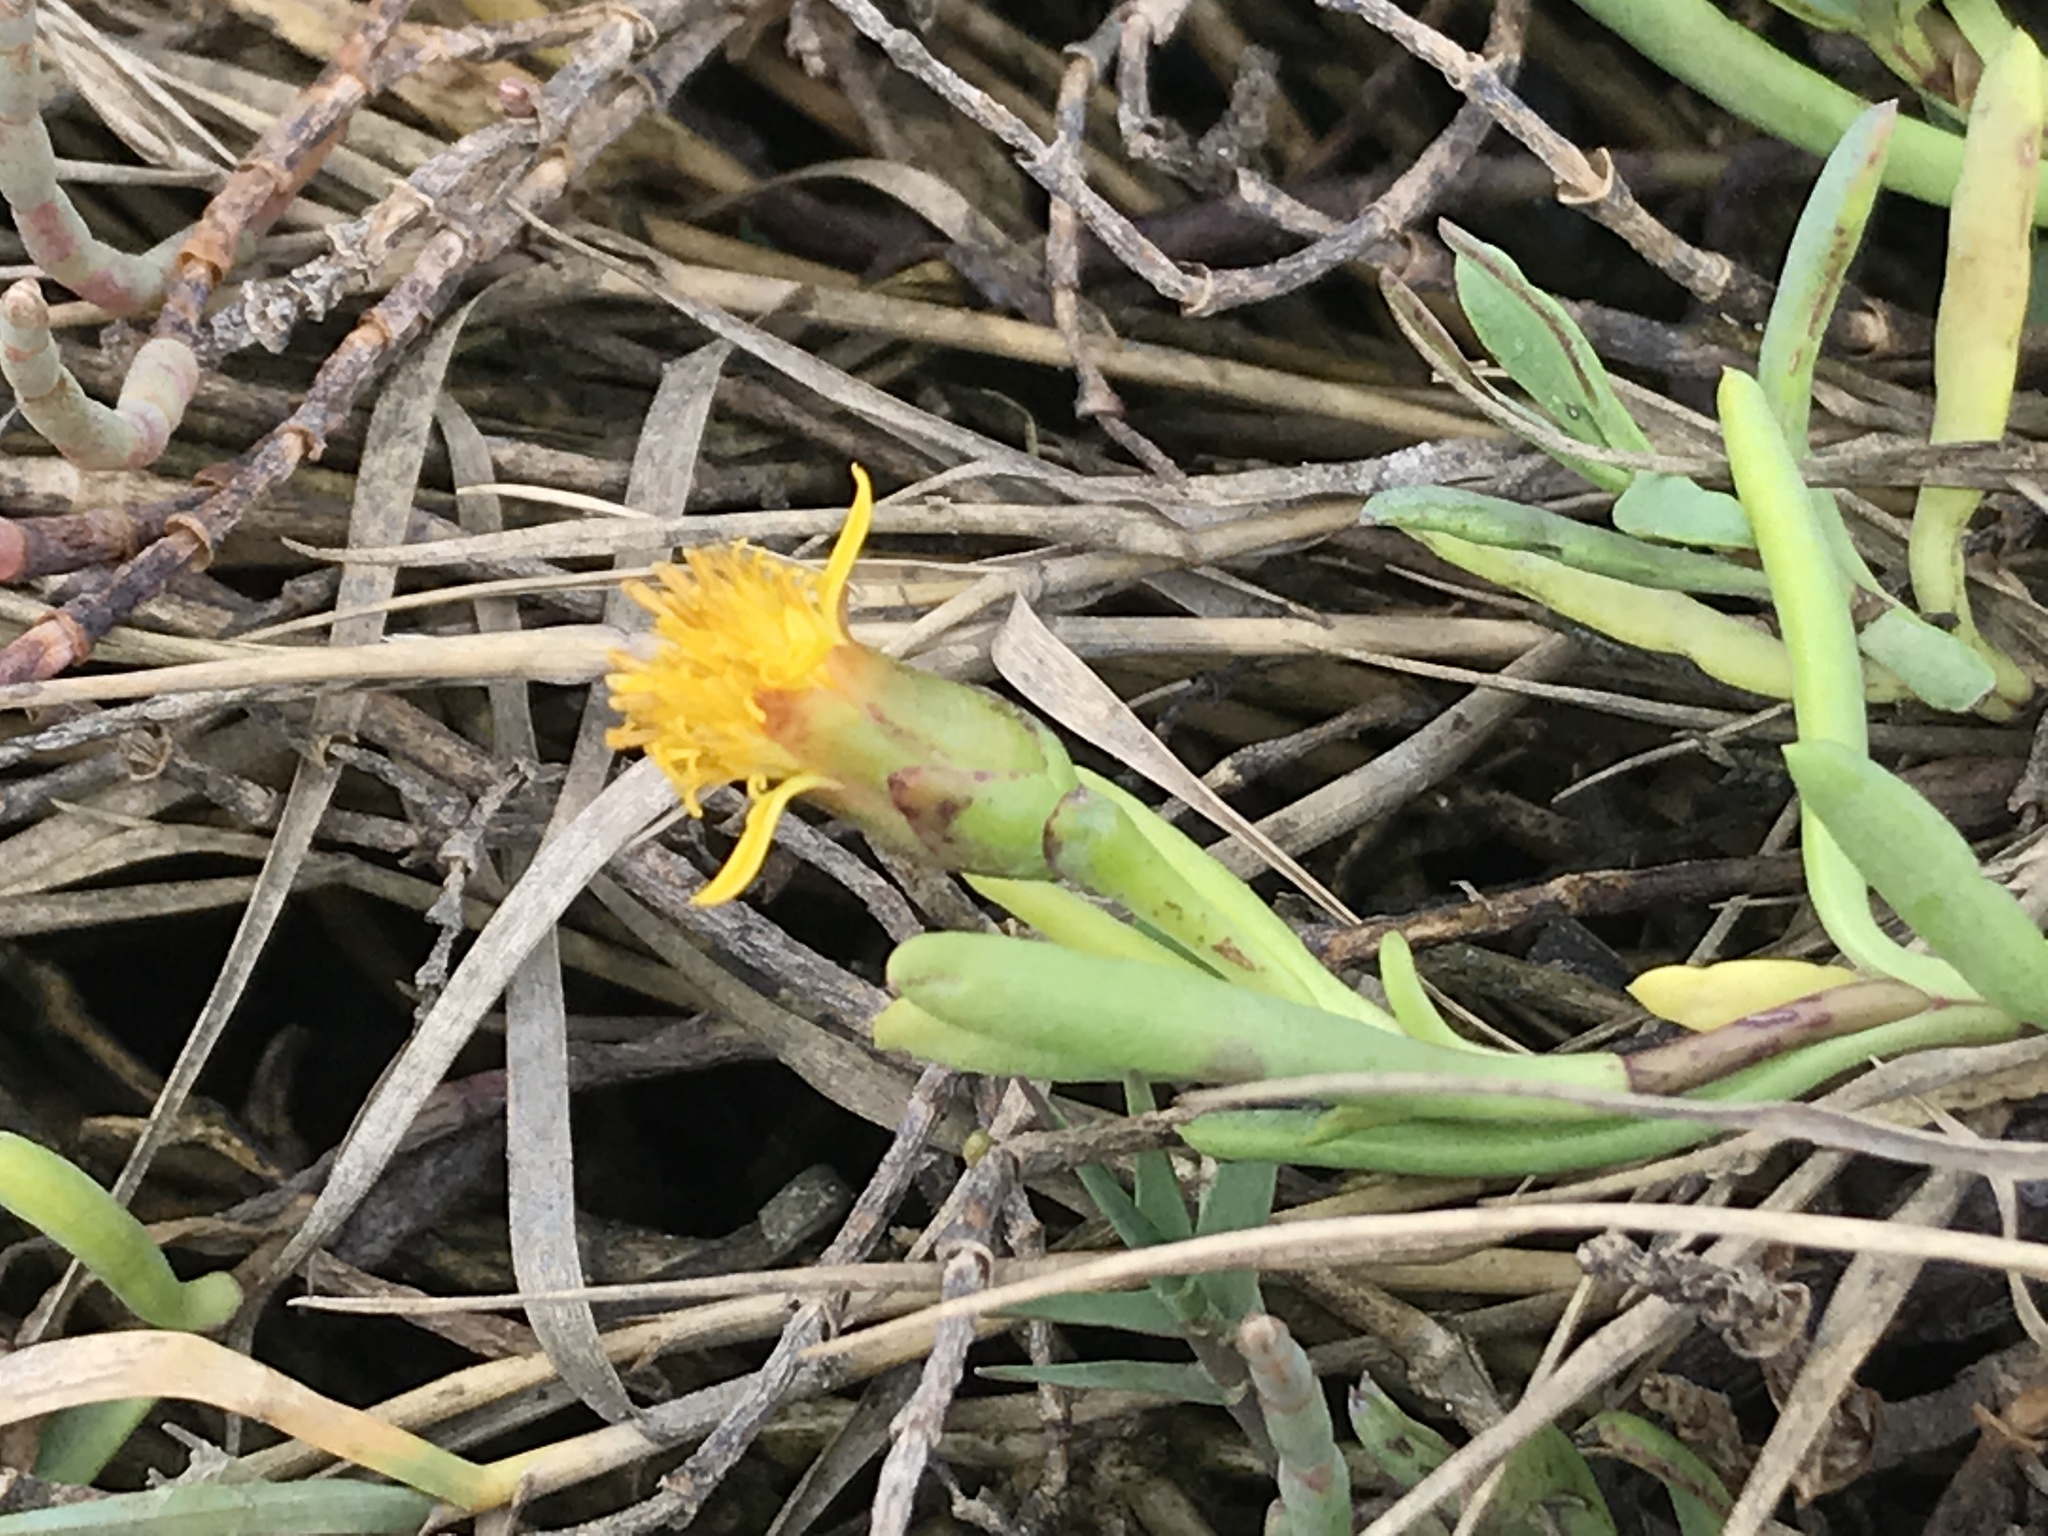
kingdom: Plantae
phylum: Tracheophyta
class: Magnoliopsida
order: Asterales
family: Asteraceae
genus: Jaumea
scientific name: Jaumea carnosa
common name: Fleshy jaumea
